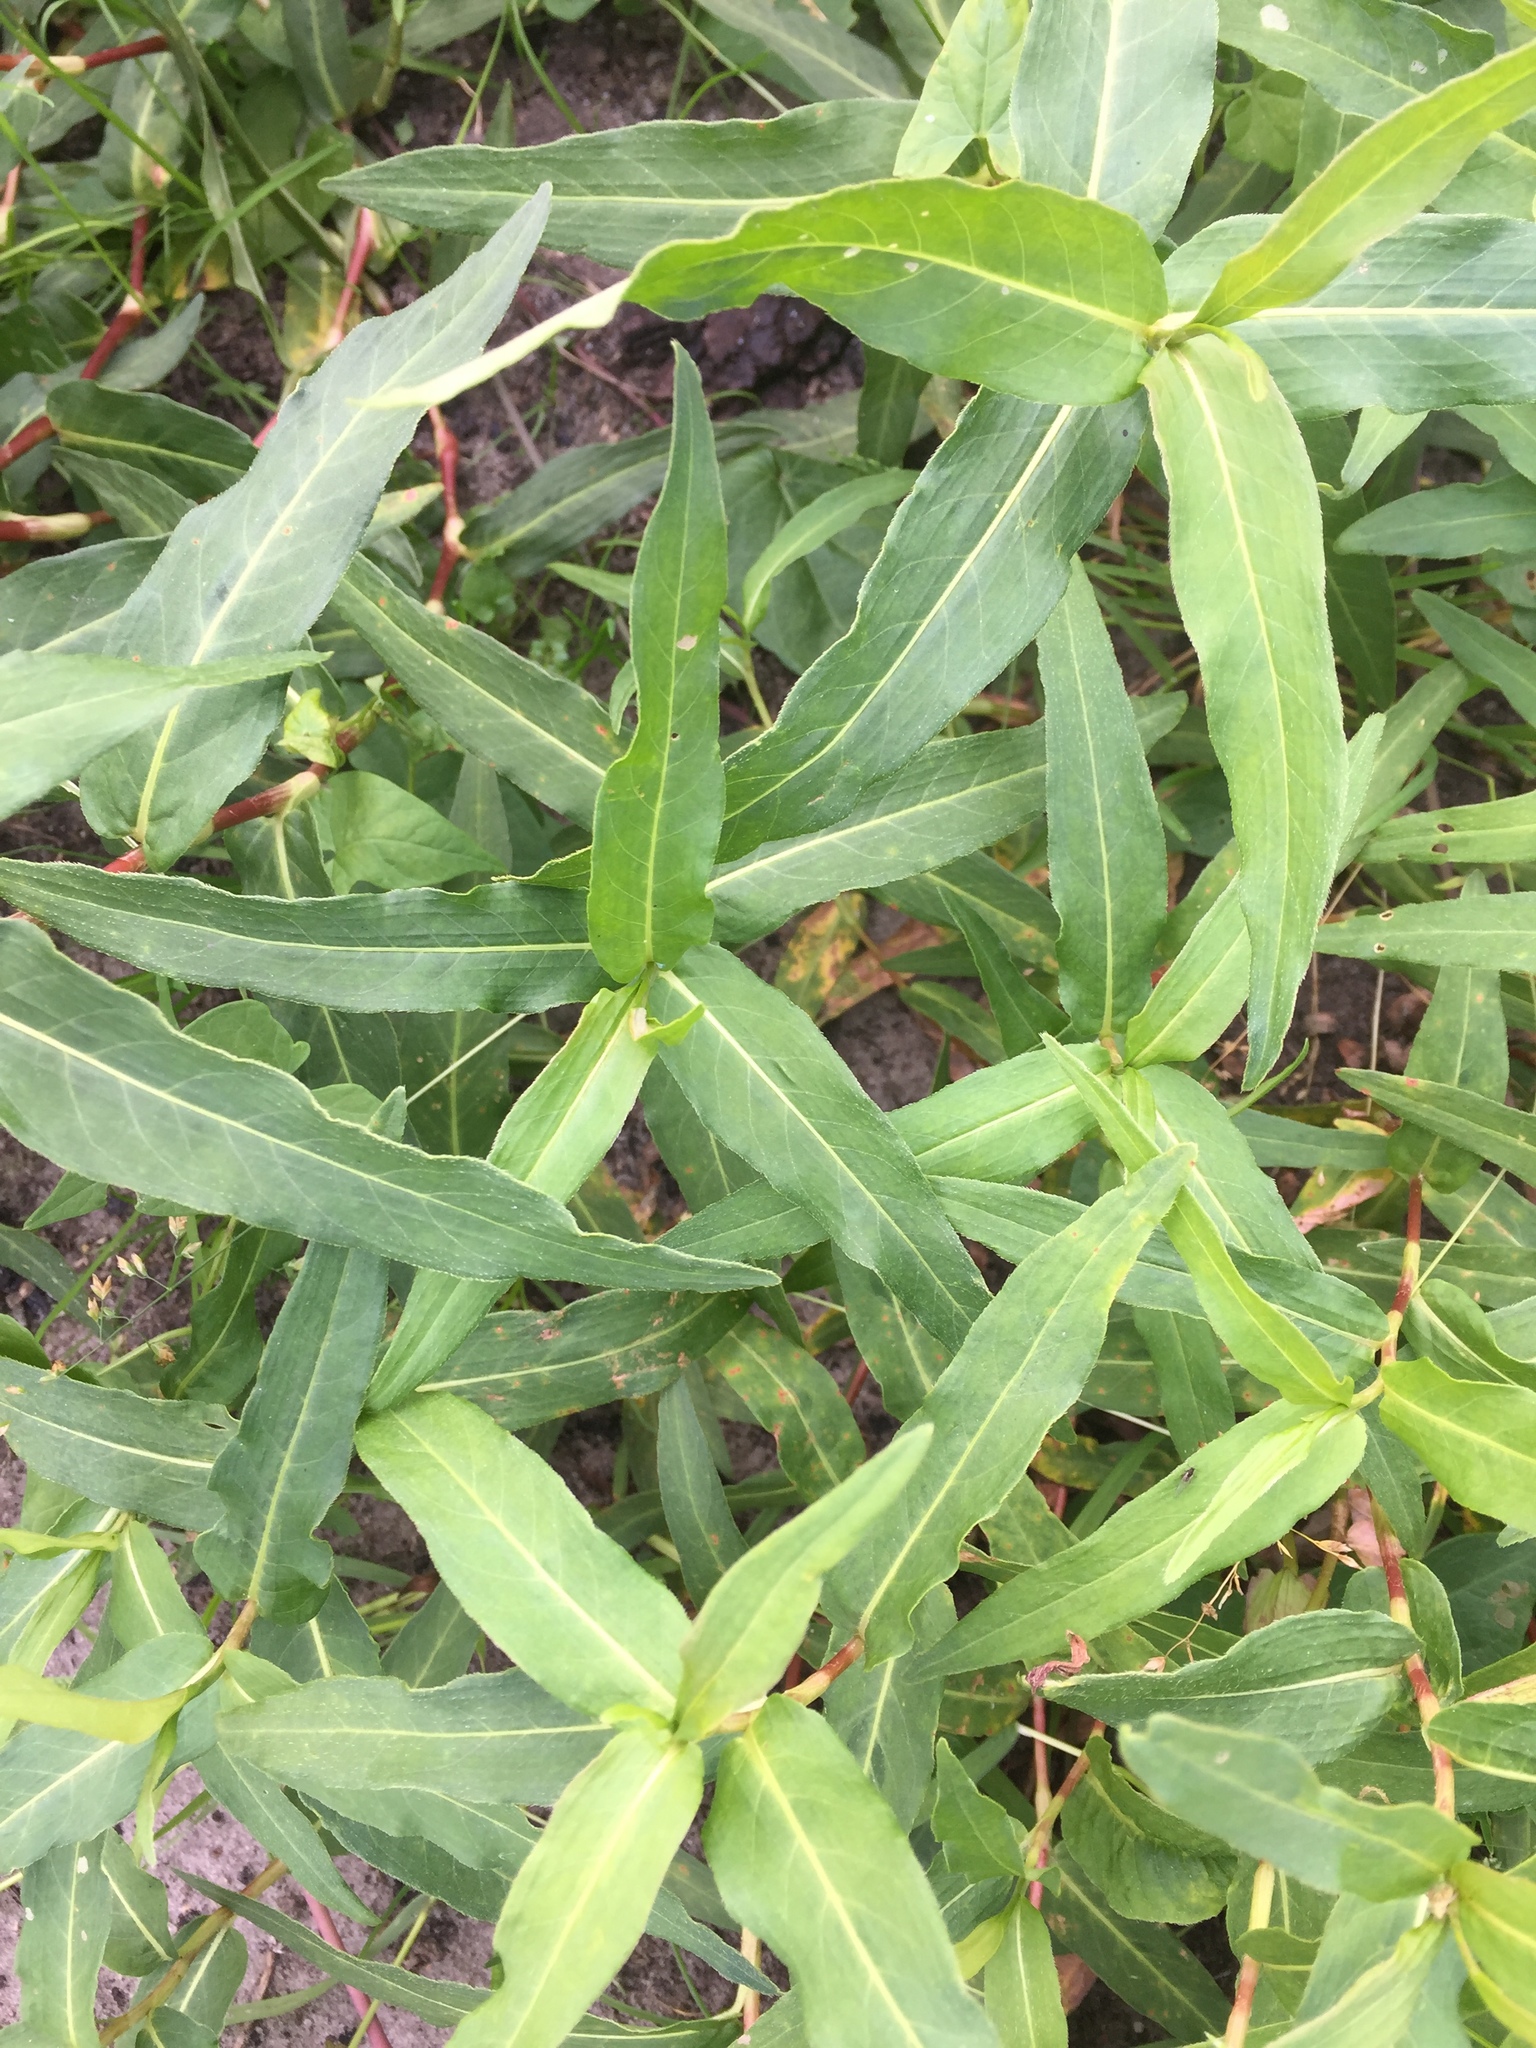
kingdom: Plantae
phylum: Tracheophyta
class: Magnoliopsida
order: Caryophyllales
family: Polygonaceae
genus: Persicaria
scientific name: Persicaria amphibia
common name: Amphibious bistort
